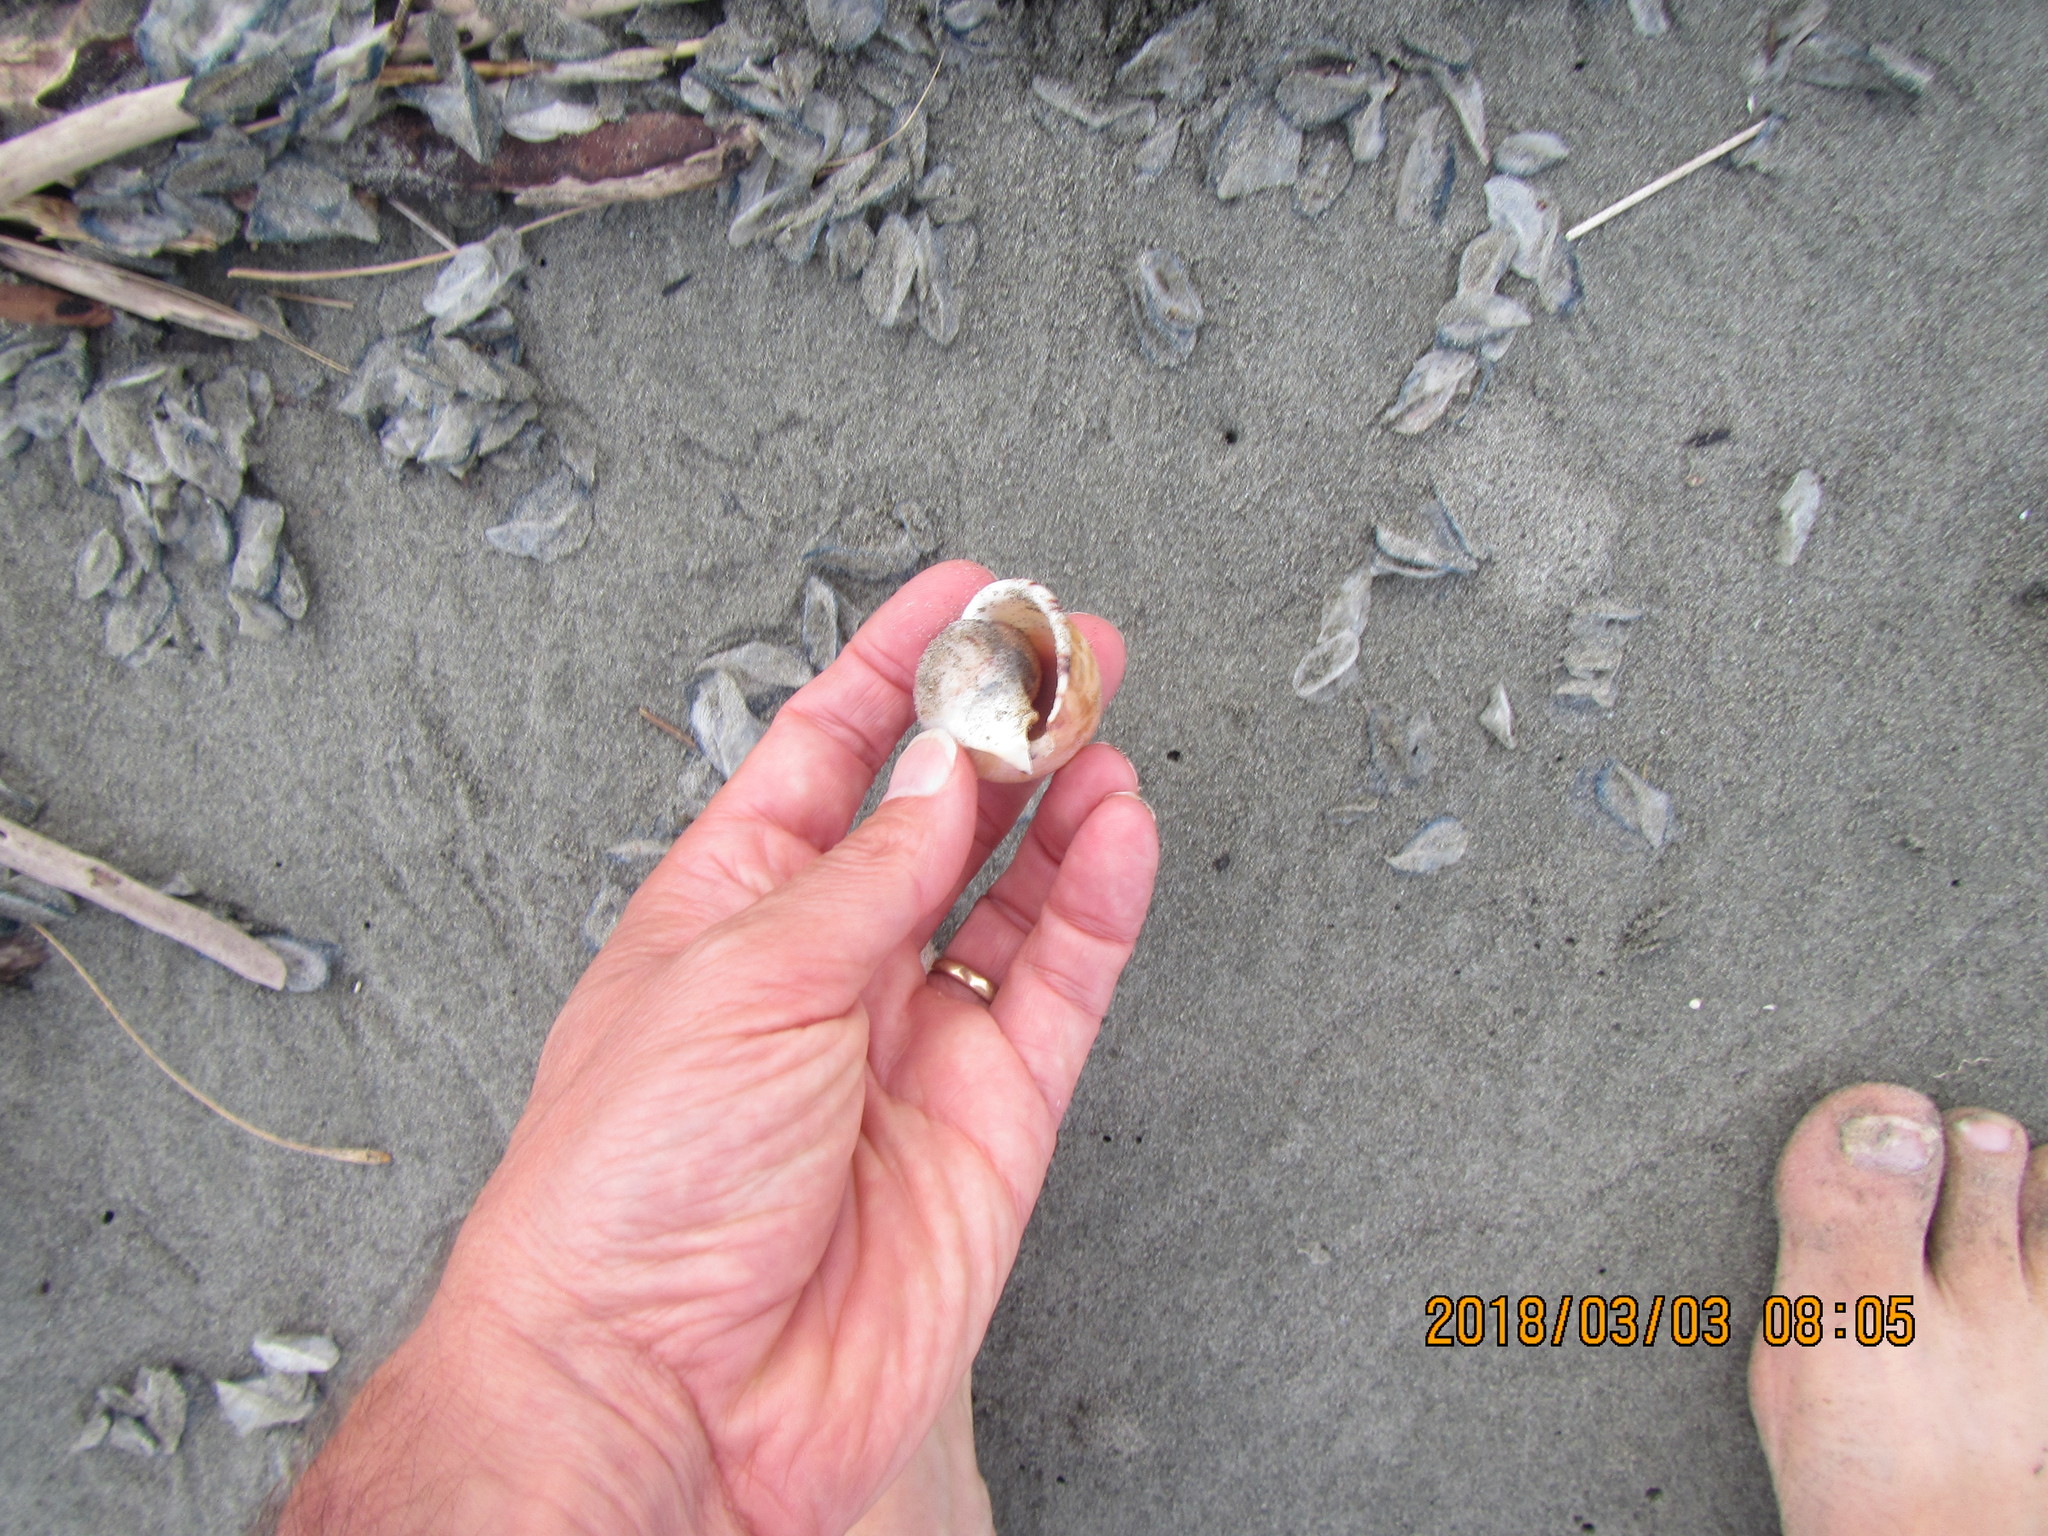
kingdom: Animalia
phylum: Mollusca
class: Gastropoda
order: Littorinimorpha
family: Cassidae
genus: Semicassis
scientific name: Semicassis pyrum
